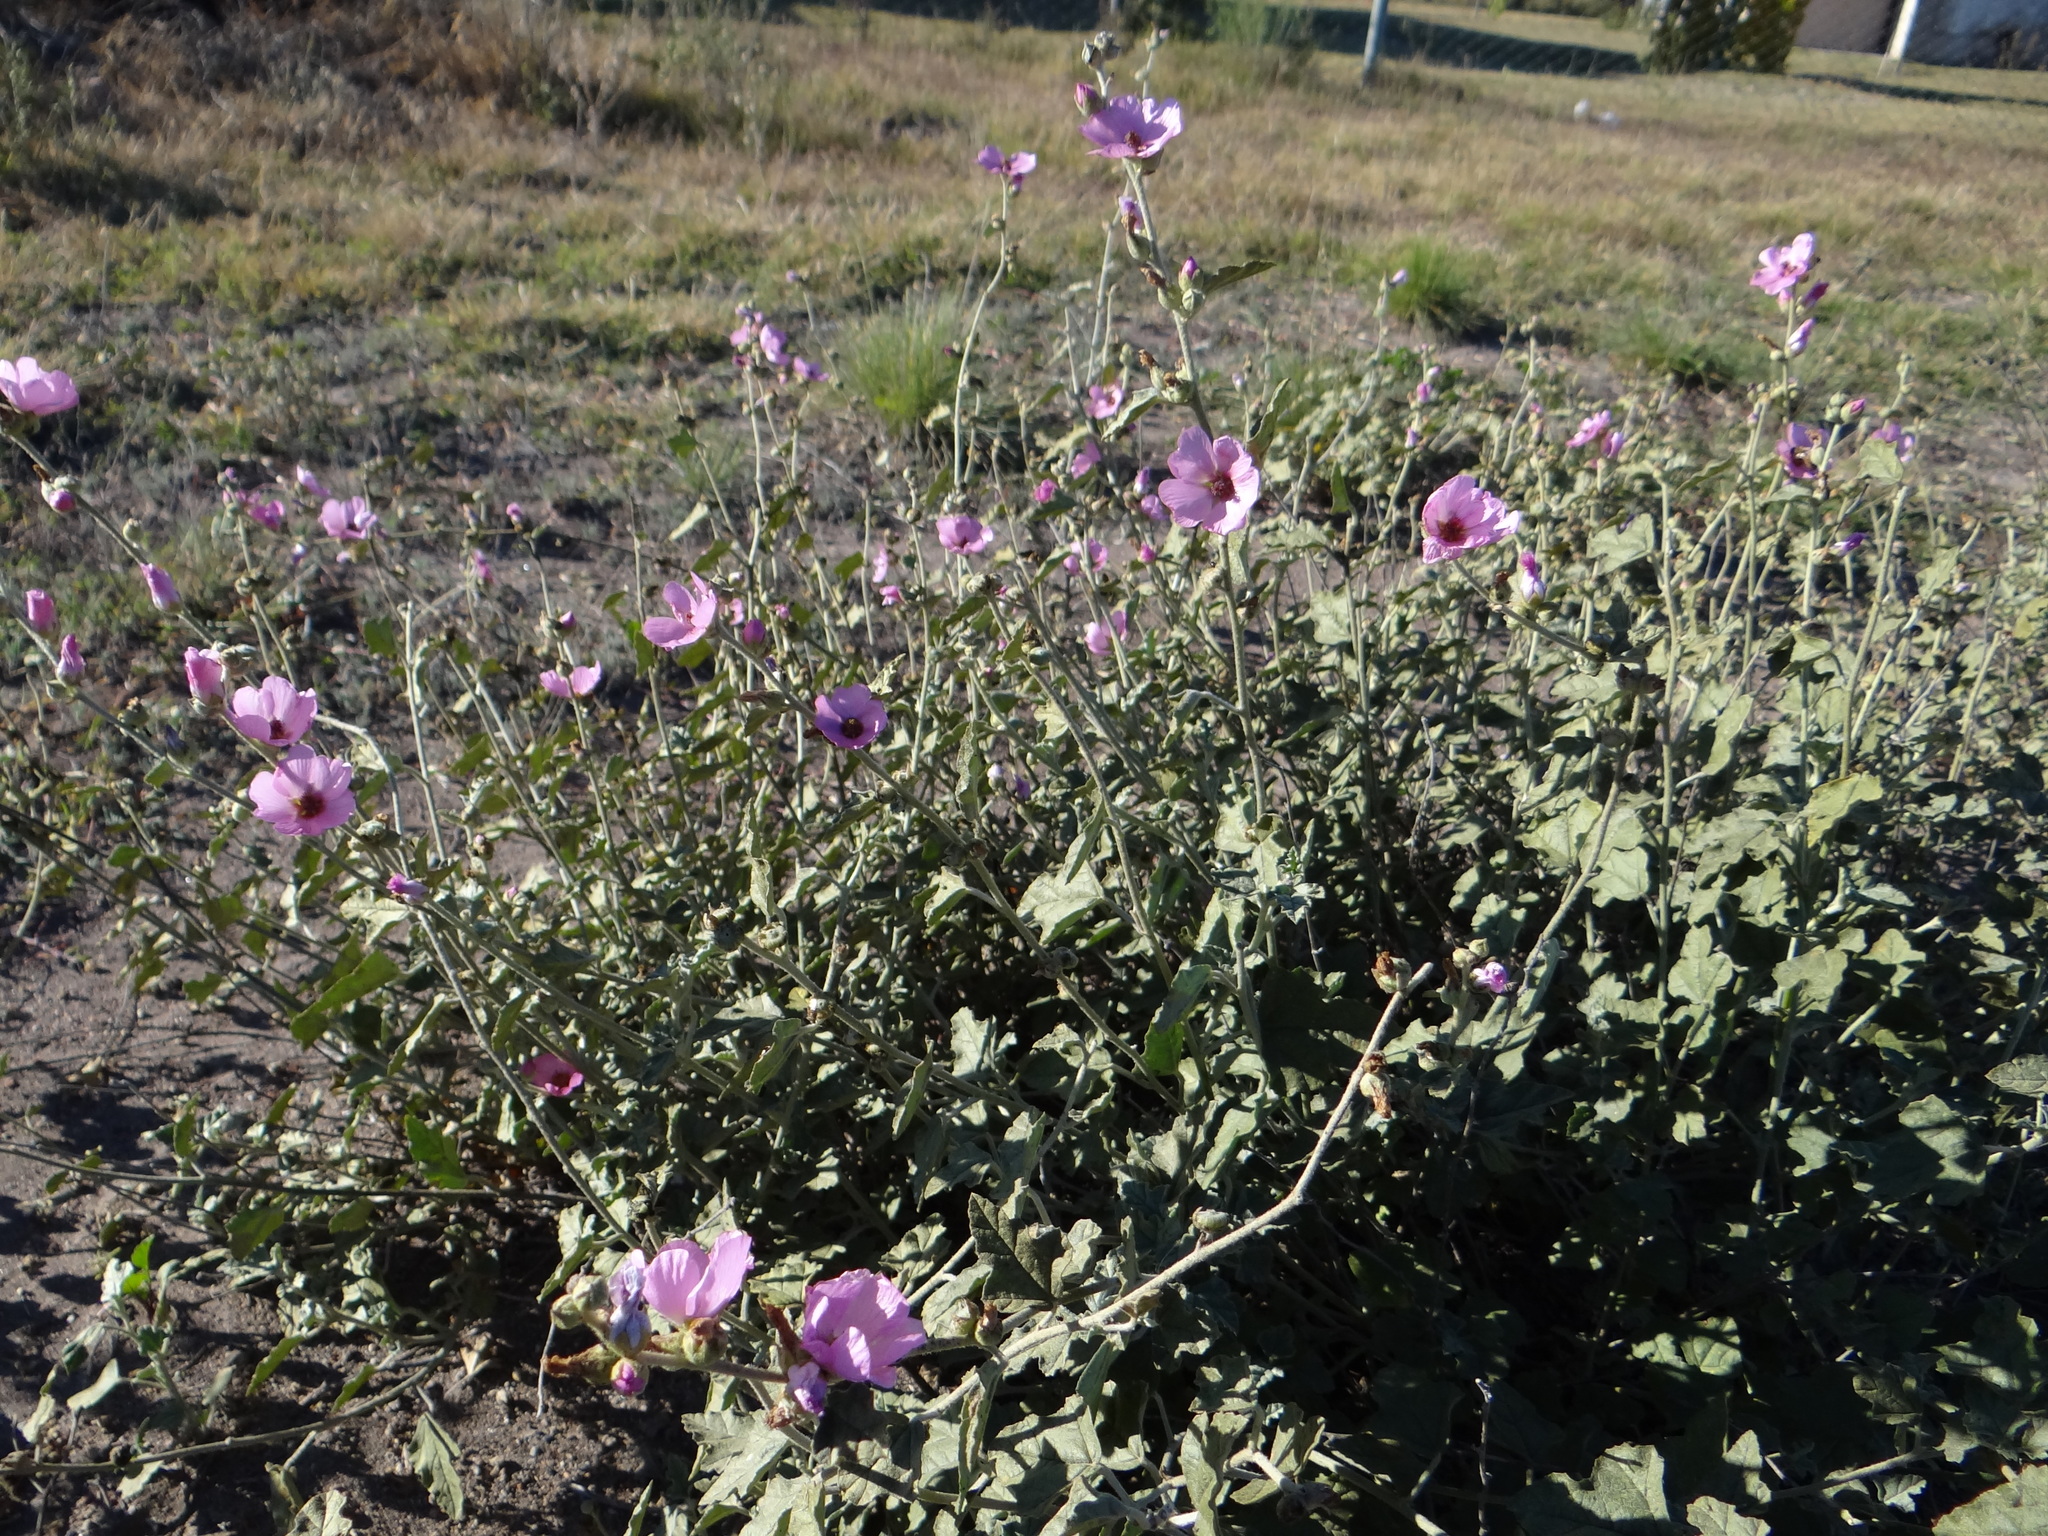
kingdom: Plantae
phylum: Tracheophyta
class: Magnoliopsida
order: Malvales
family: Malvaceae
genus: Lecanophora
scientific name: Lecanophora heterophylla
